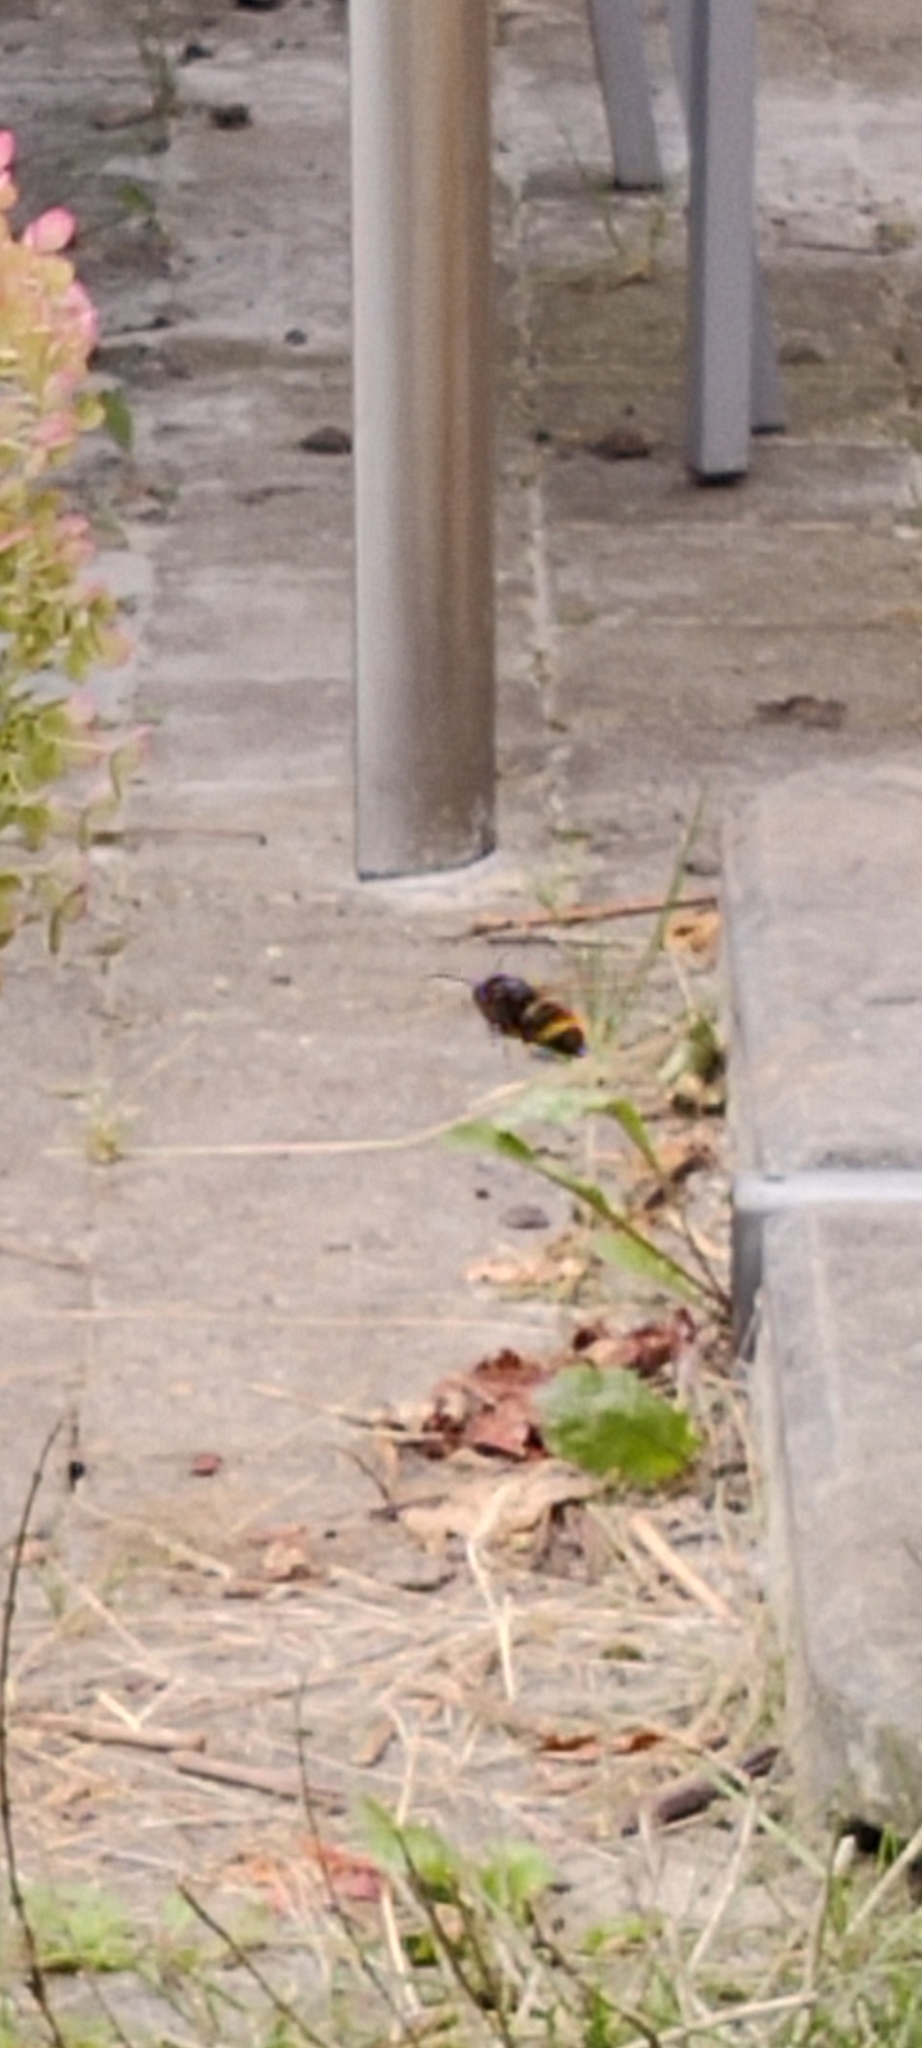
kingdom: Animalia
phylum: Arthropoda
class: Insecta
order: Hymenoptera
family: Vespidae
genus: Vespa
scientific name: Vespa velutina
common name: Asian hornet
